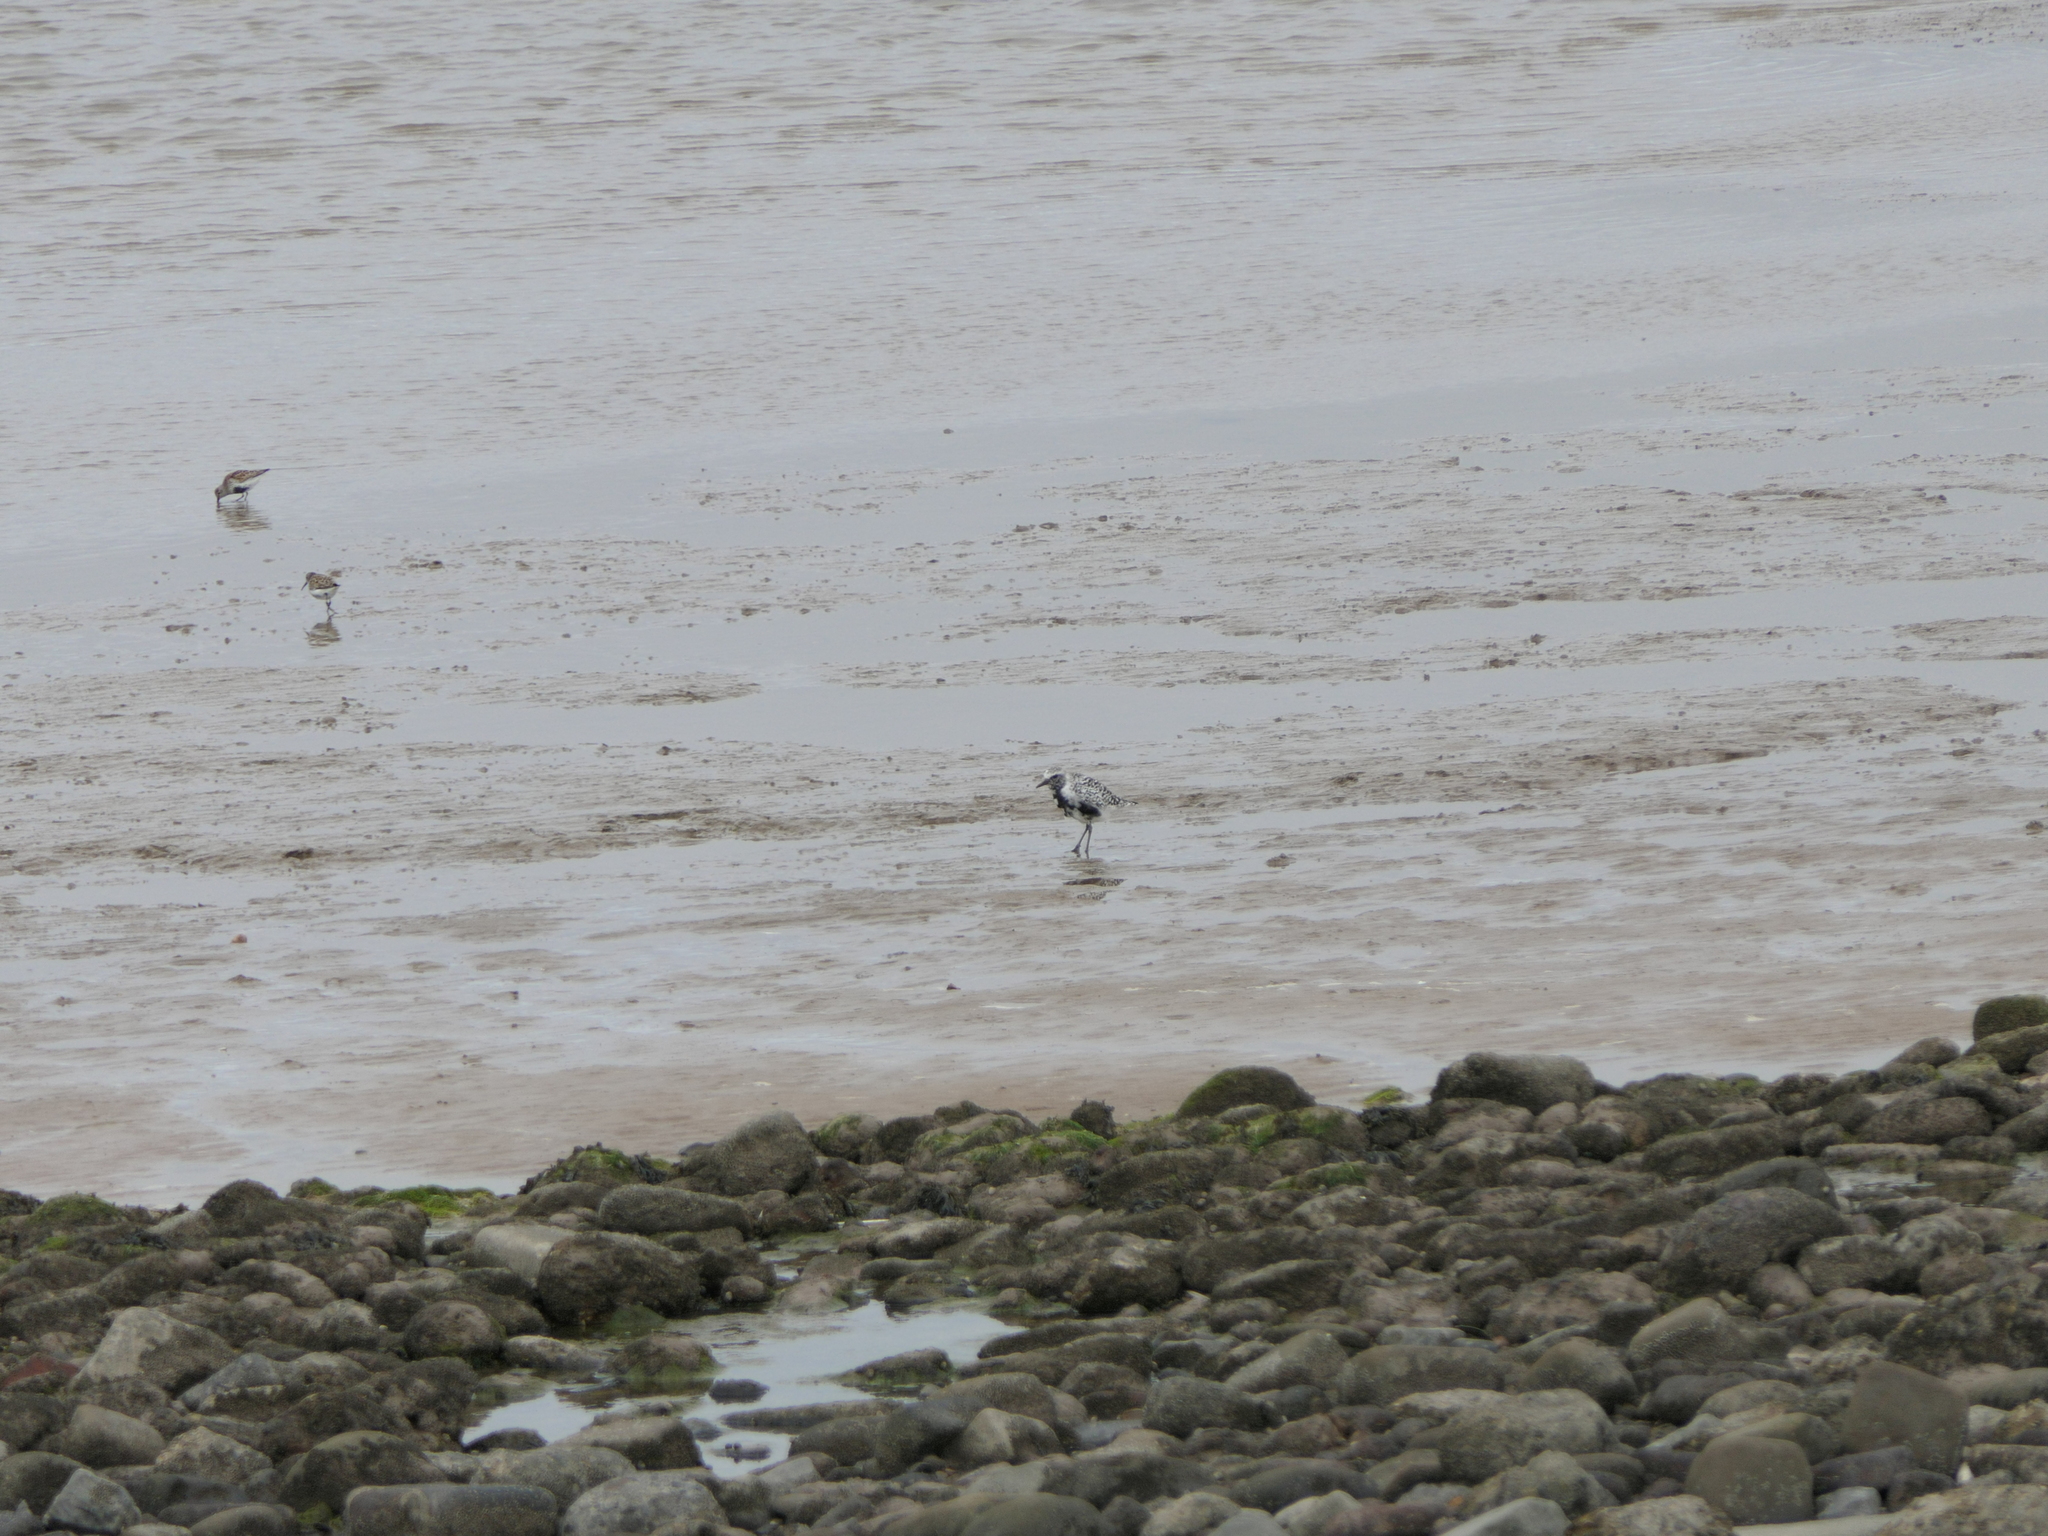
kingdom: Animalia
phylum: Chordata
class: Aves
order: Charadriiformes
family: Charadriidae
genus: Pluvialis
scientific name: Pluvialis squatarola
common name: Grey plover
